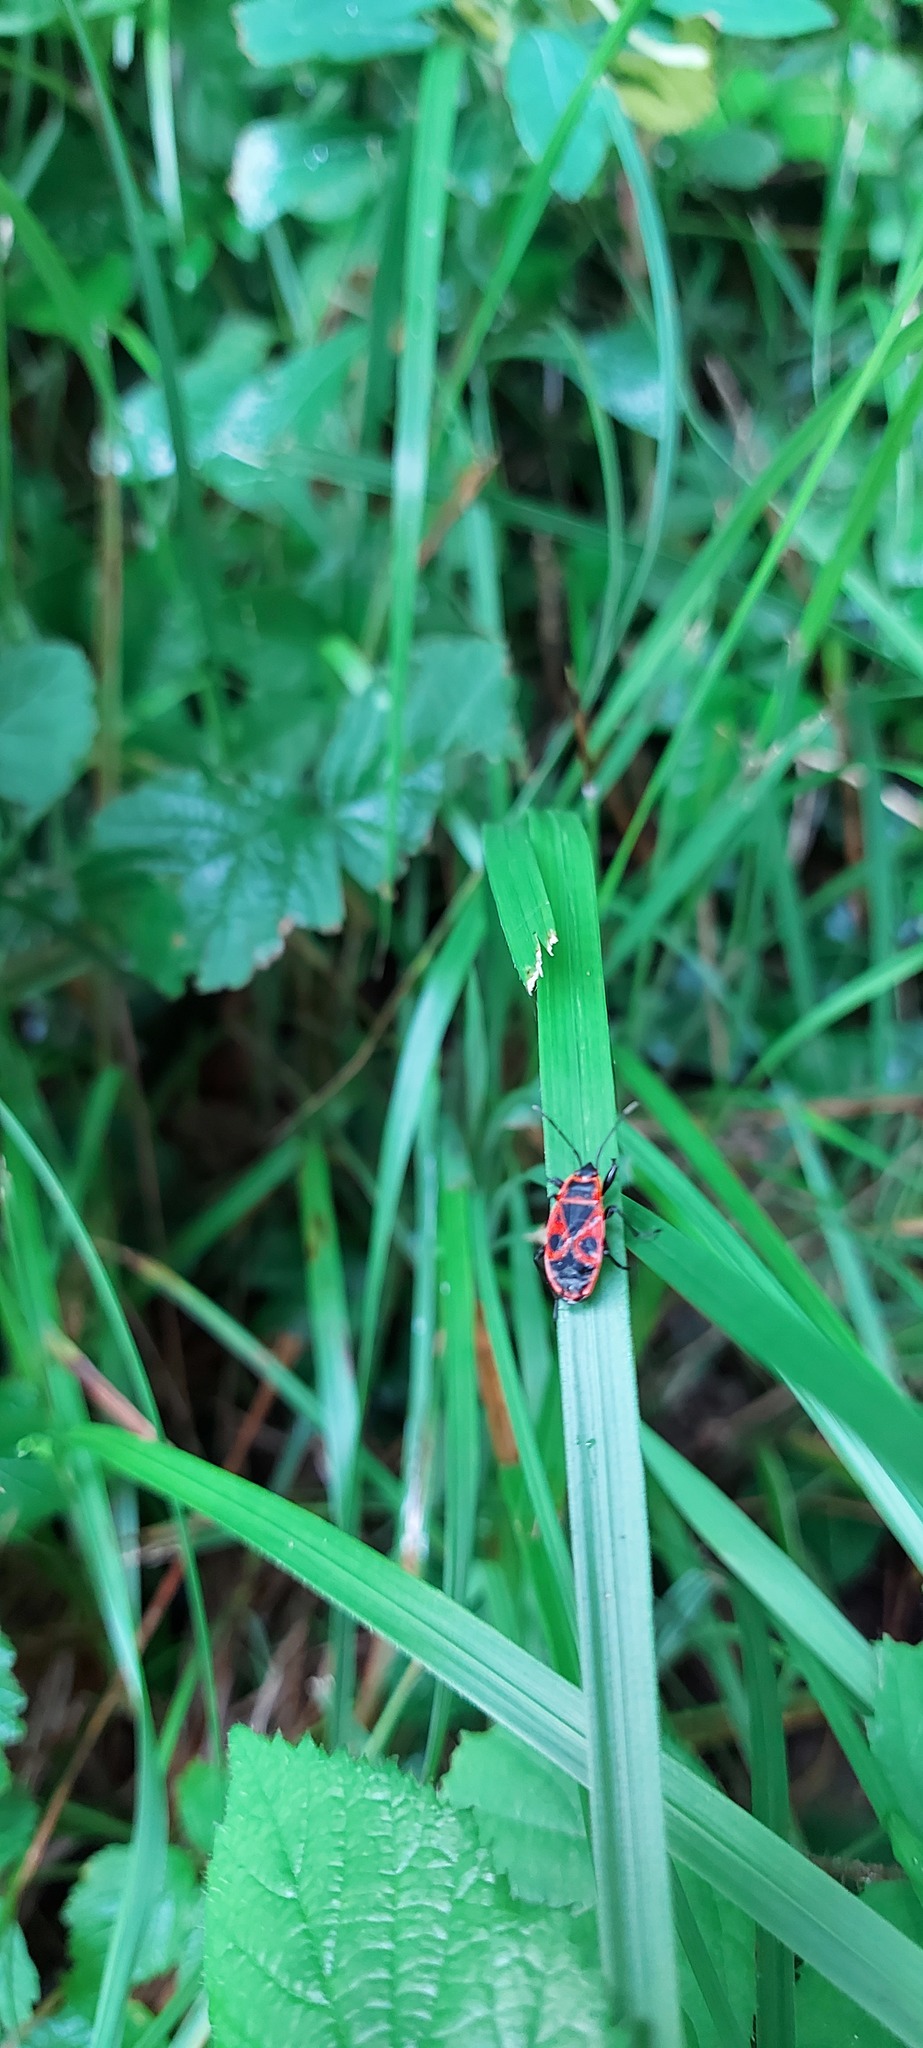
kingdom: Animalia
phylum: Arthropoda
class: Insecta
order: Hemiptera
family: Pyrrhocoridae
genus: Pyrrhocoris
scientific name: Pyrrhocoris apterus
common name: Firebug
